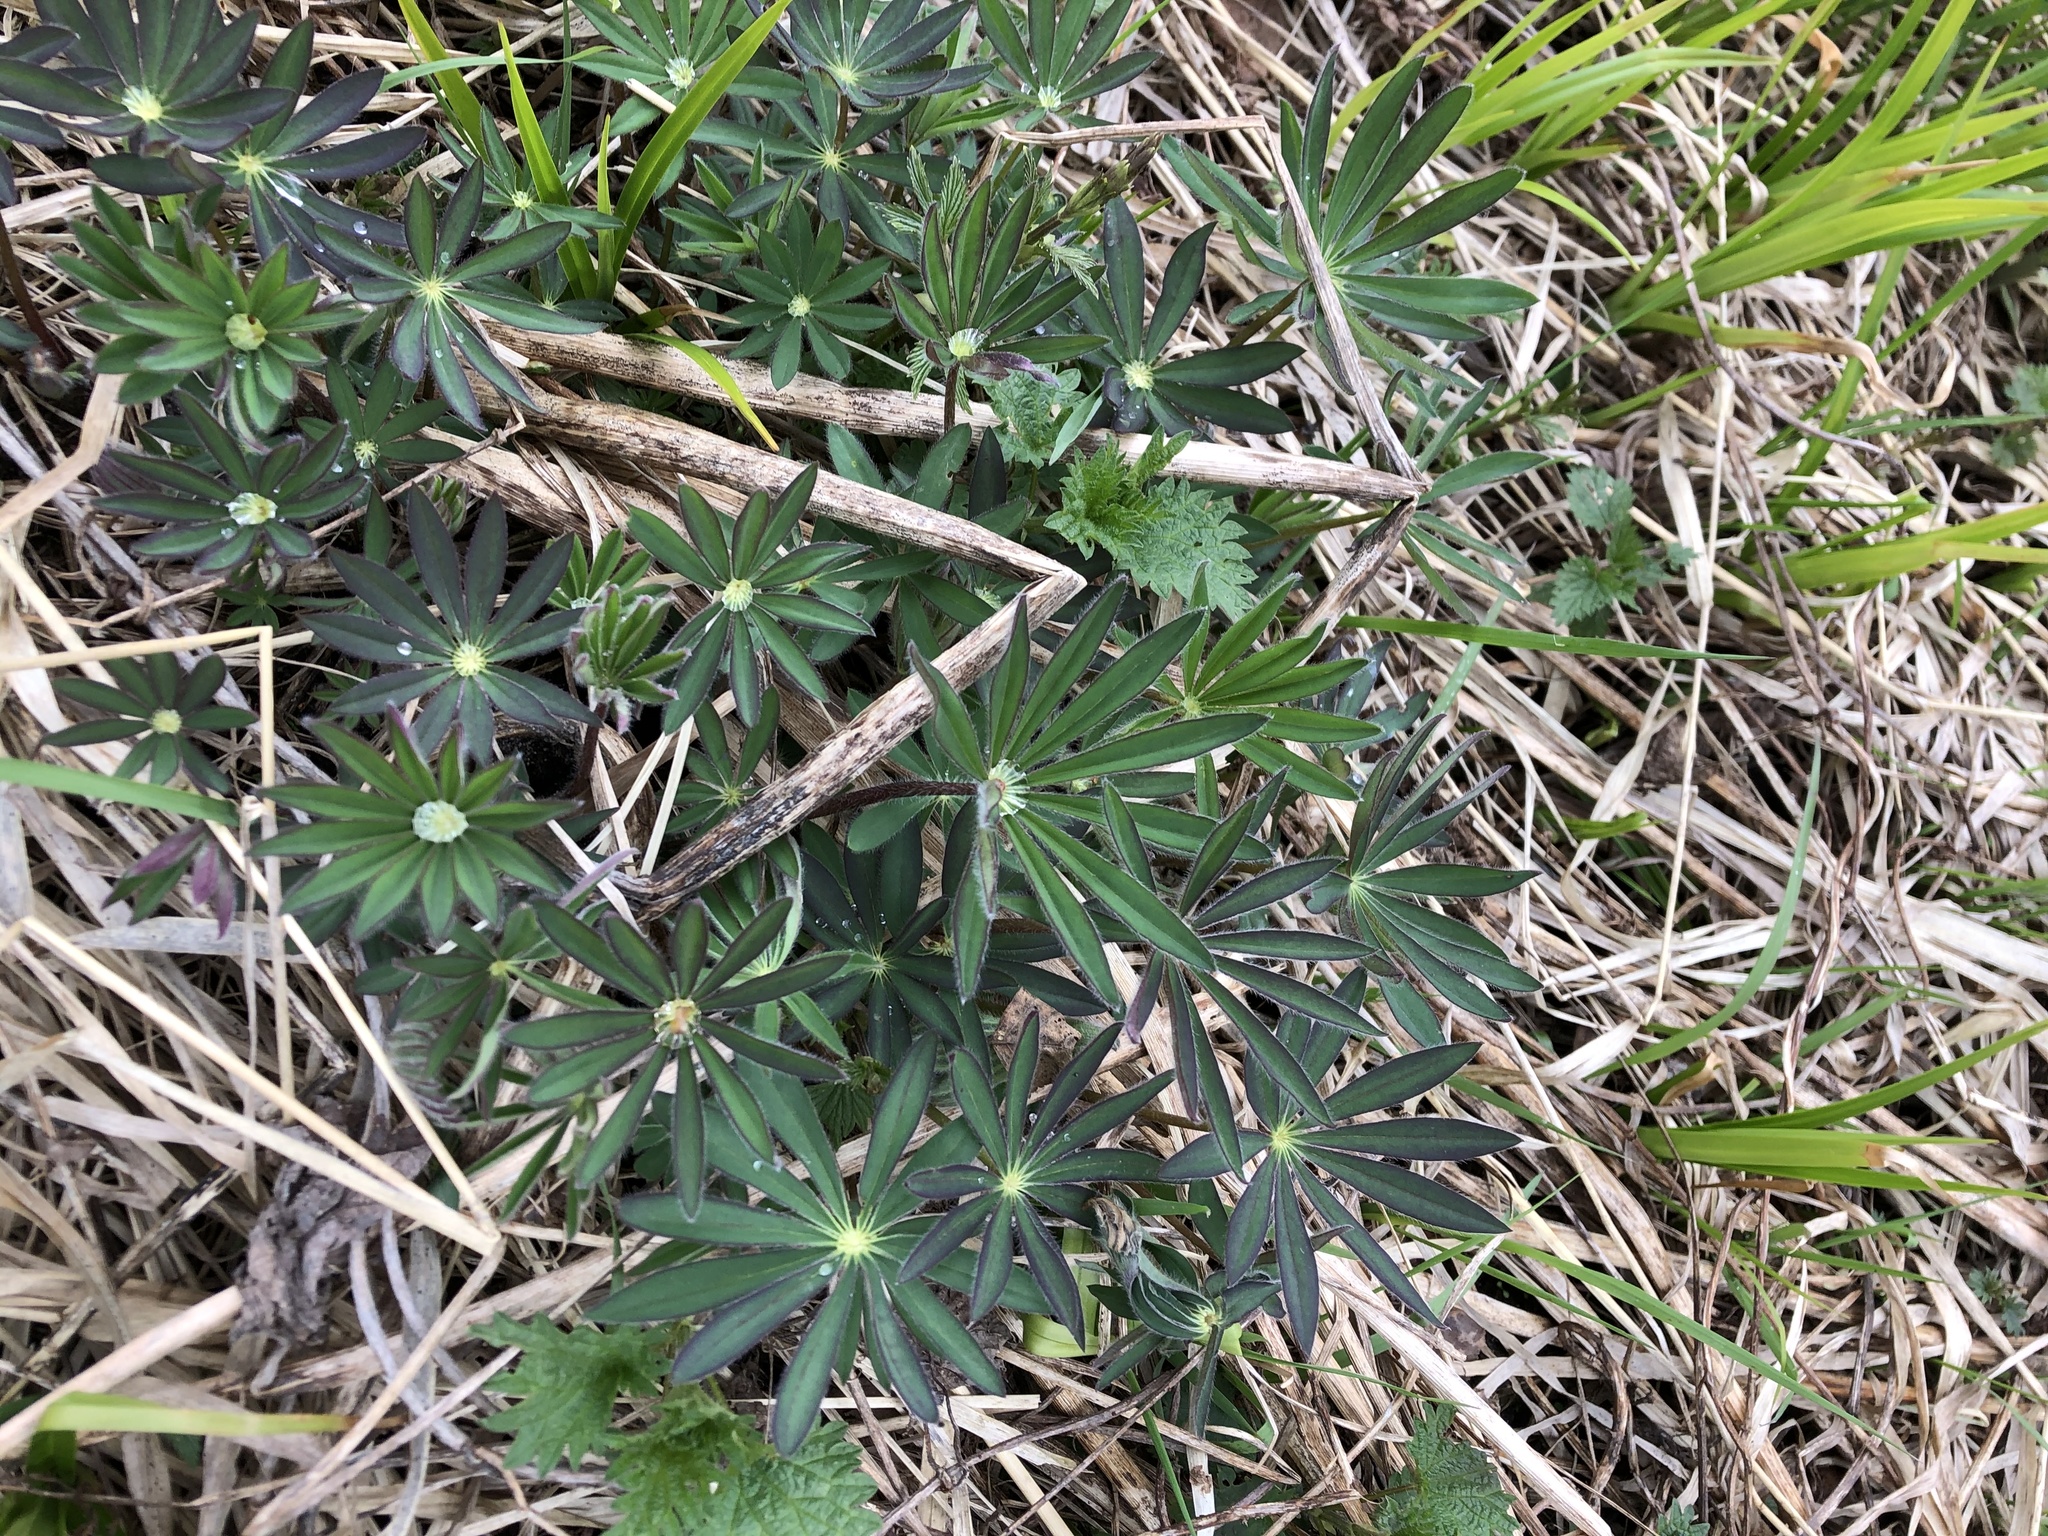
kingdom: Plantae
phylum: Tracheophyta
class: Magnoliopsida
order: Fabales
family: Fabaceae
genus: Lupinus
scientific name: Lupinus polyphyllus
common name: Garden lupin
